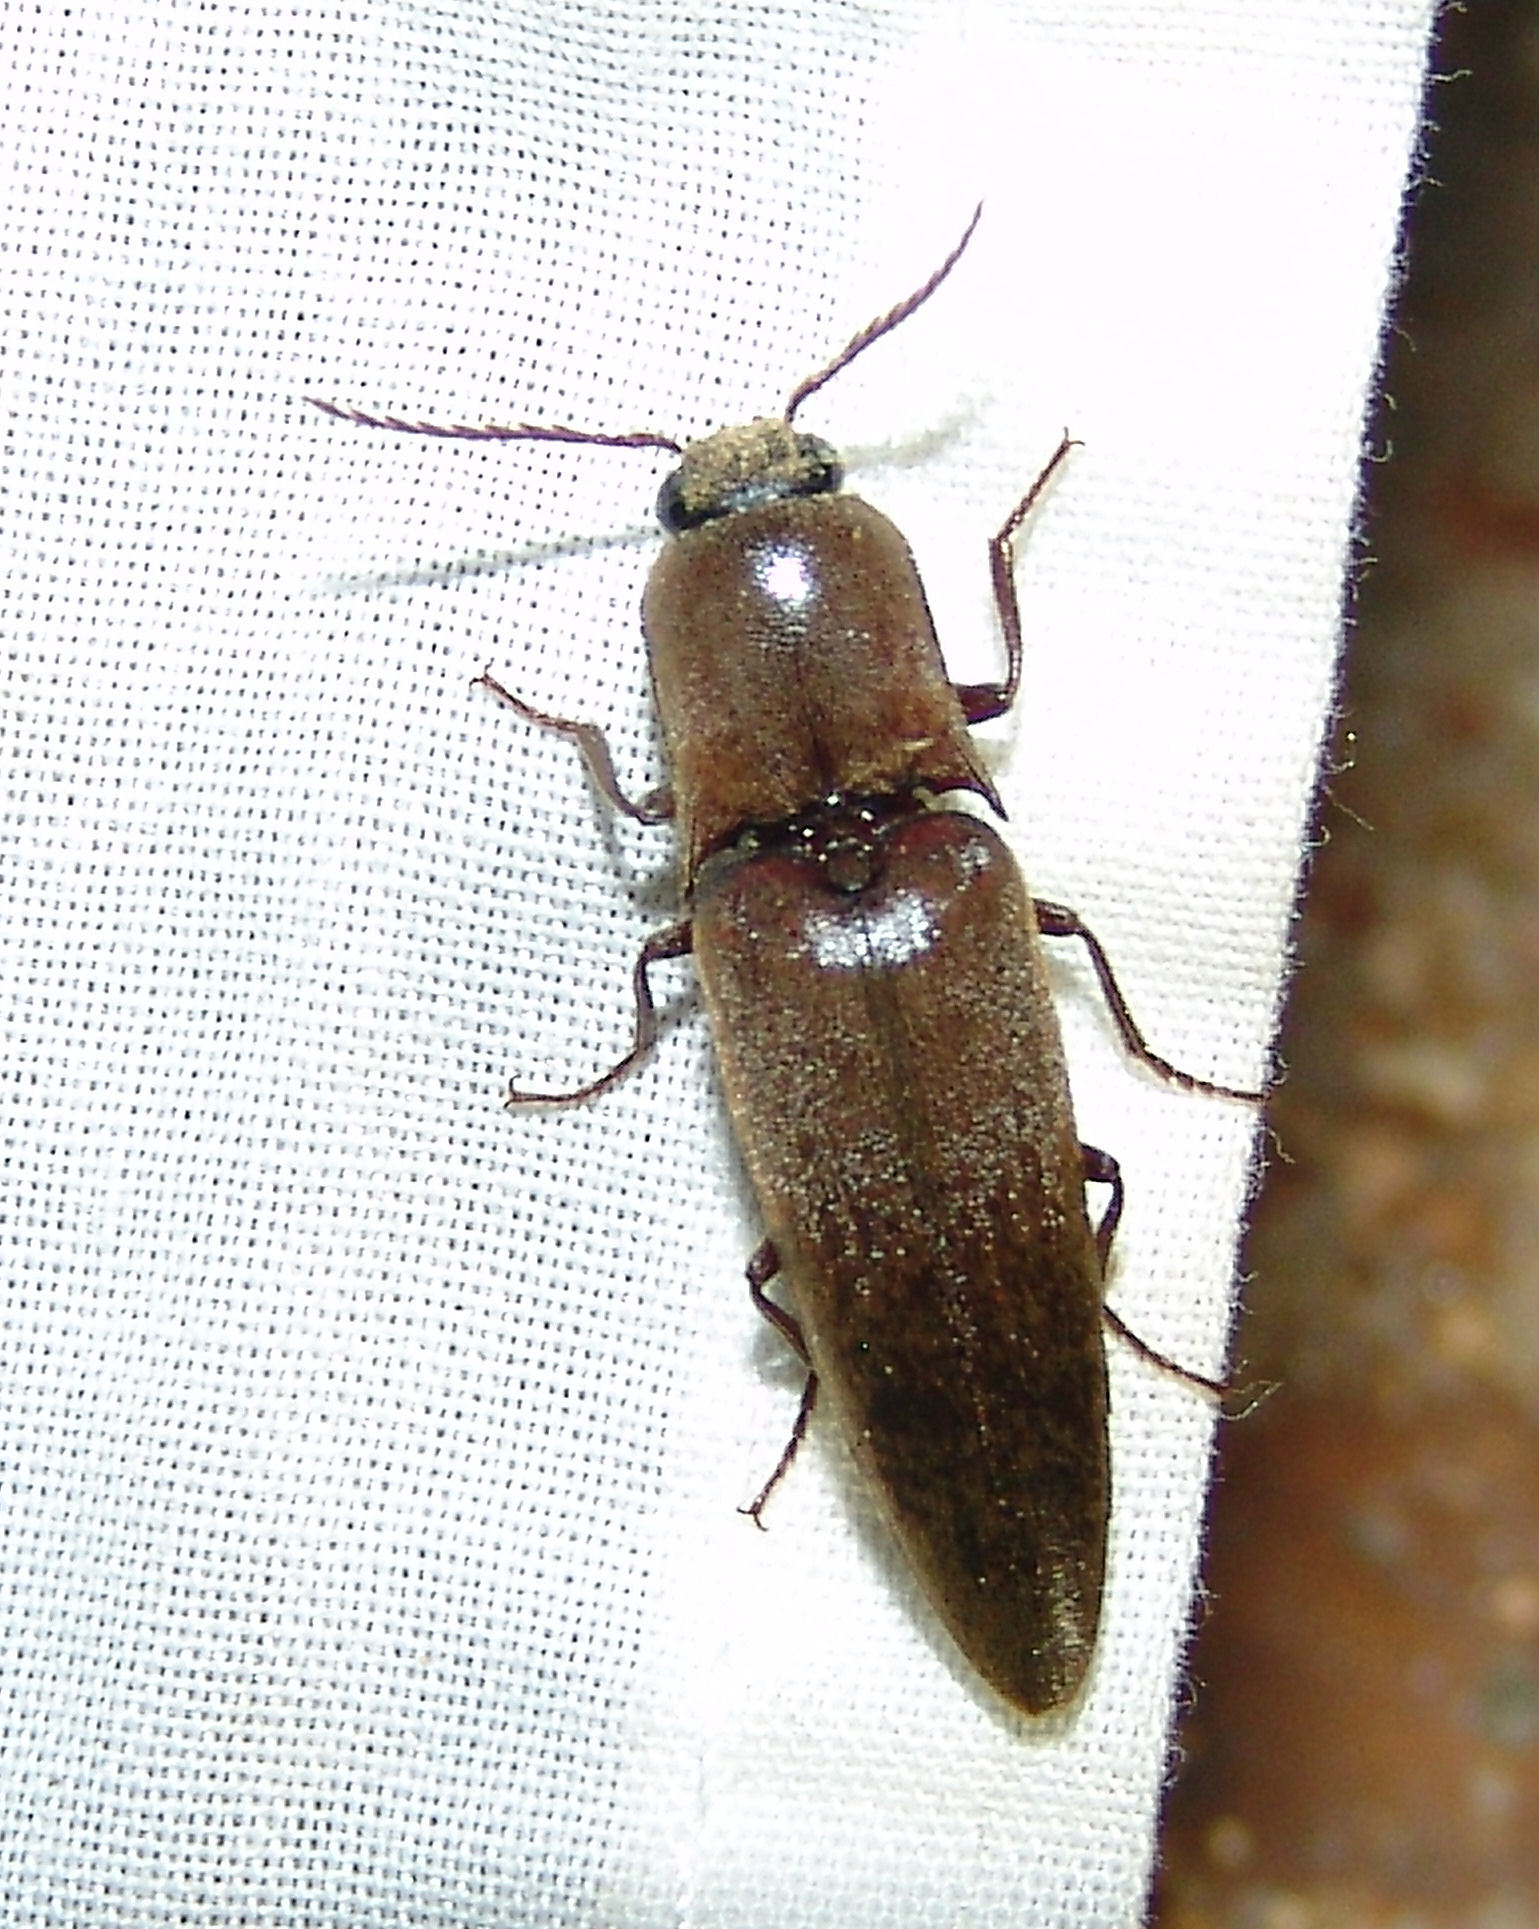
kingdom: Animalia
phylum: Arthropoda
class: Insecta
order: Coleoptera
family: Elateridae
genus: Orthostethus
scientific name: Orthostethus infuscatus
